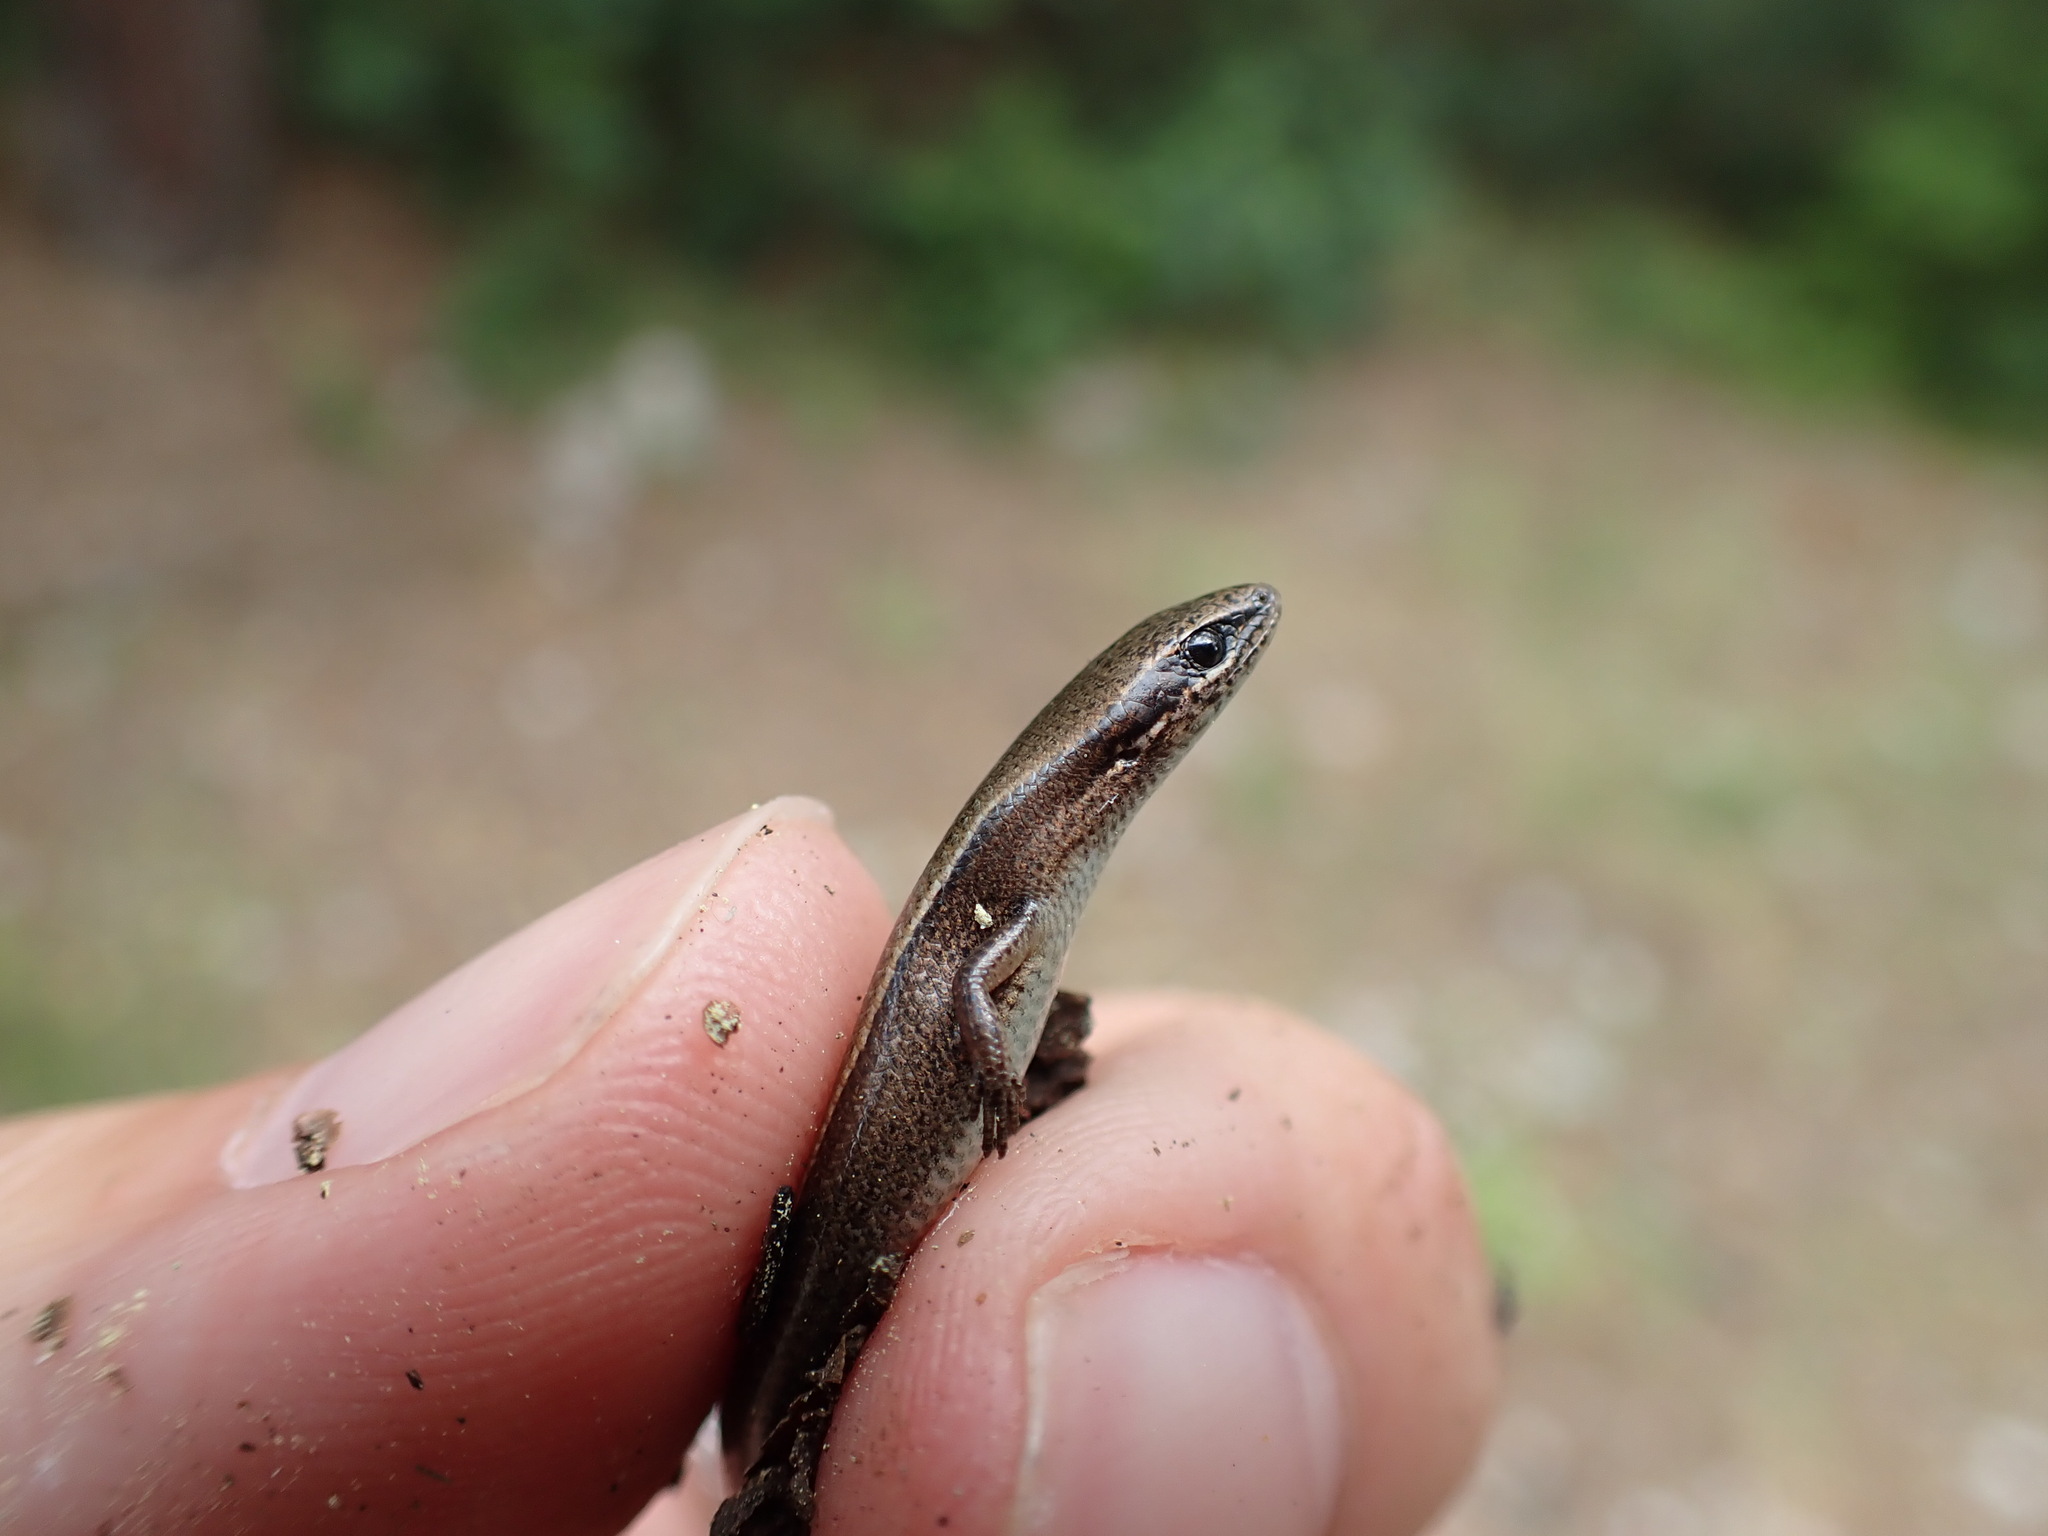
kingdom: Animalia
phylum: Chordata
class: Squamata
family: Scincidae
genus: Ablepharus
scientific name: Ablepharus anatolicus
